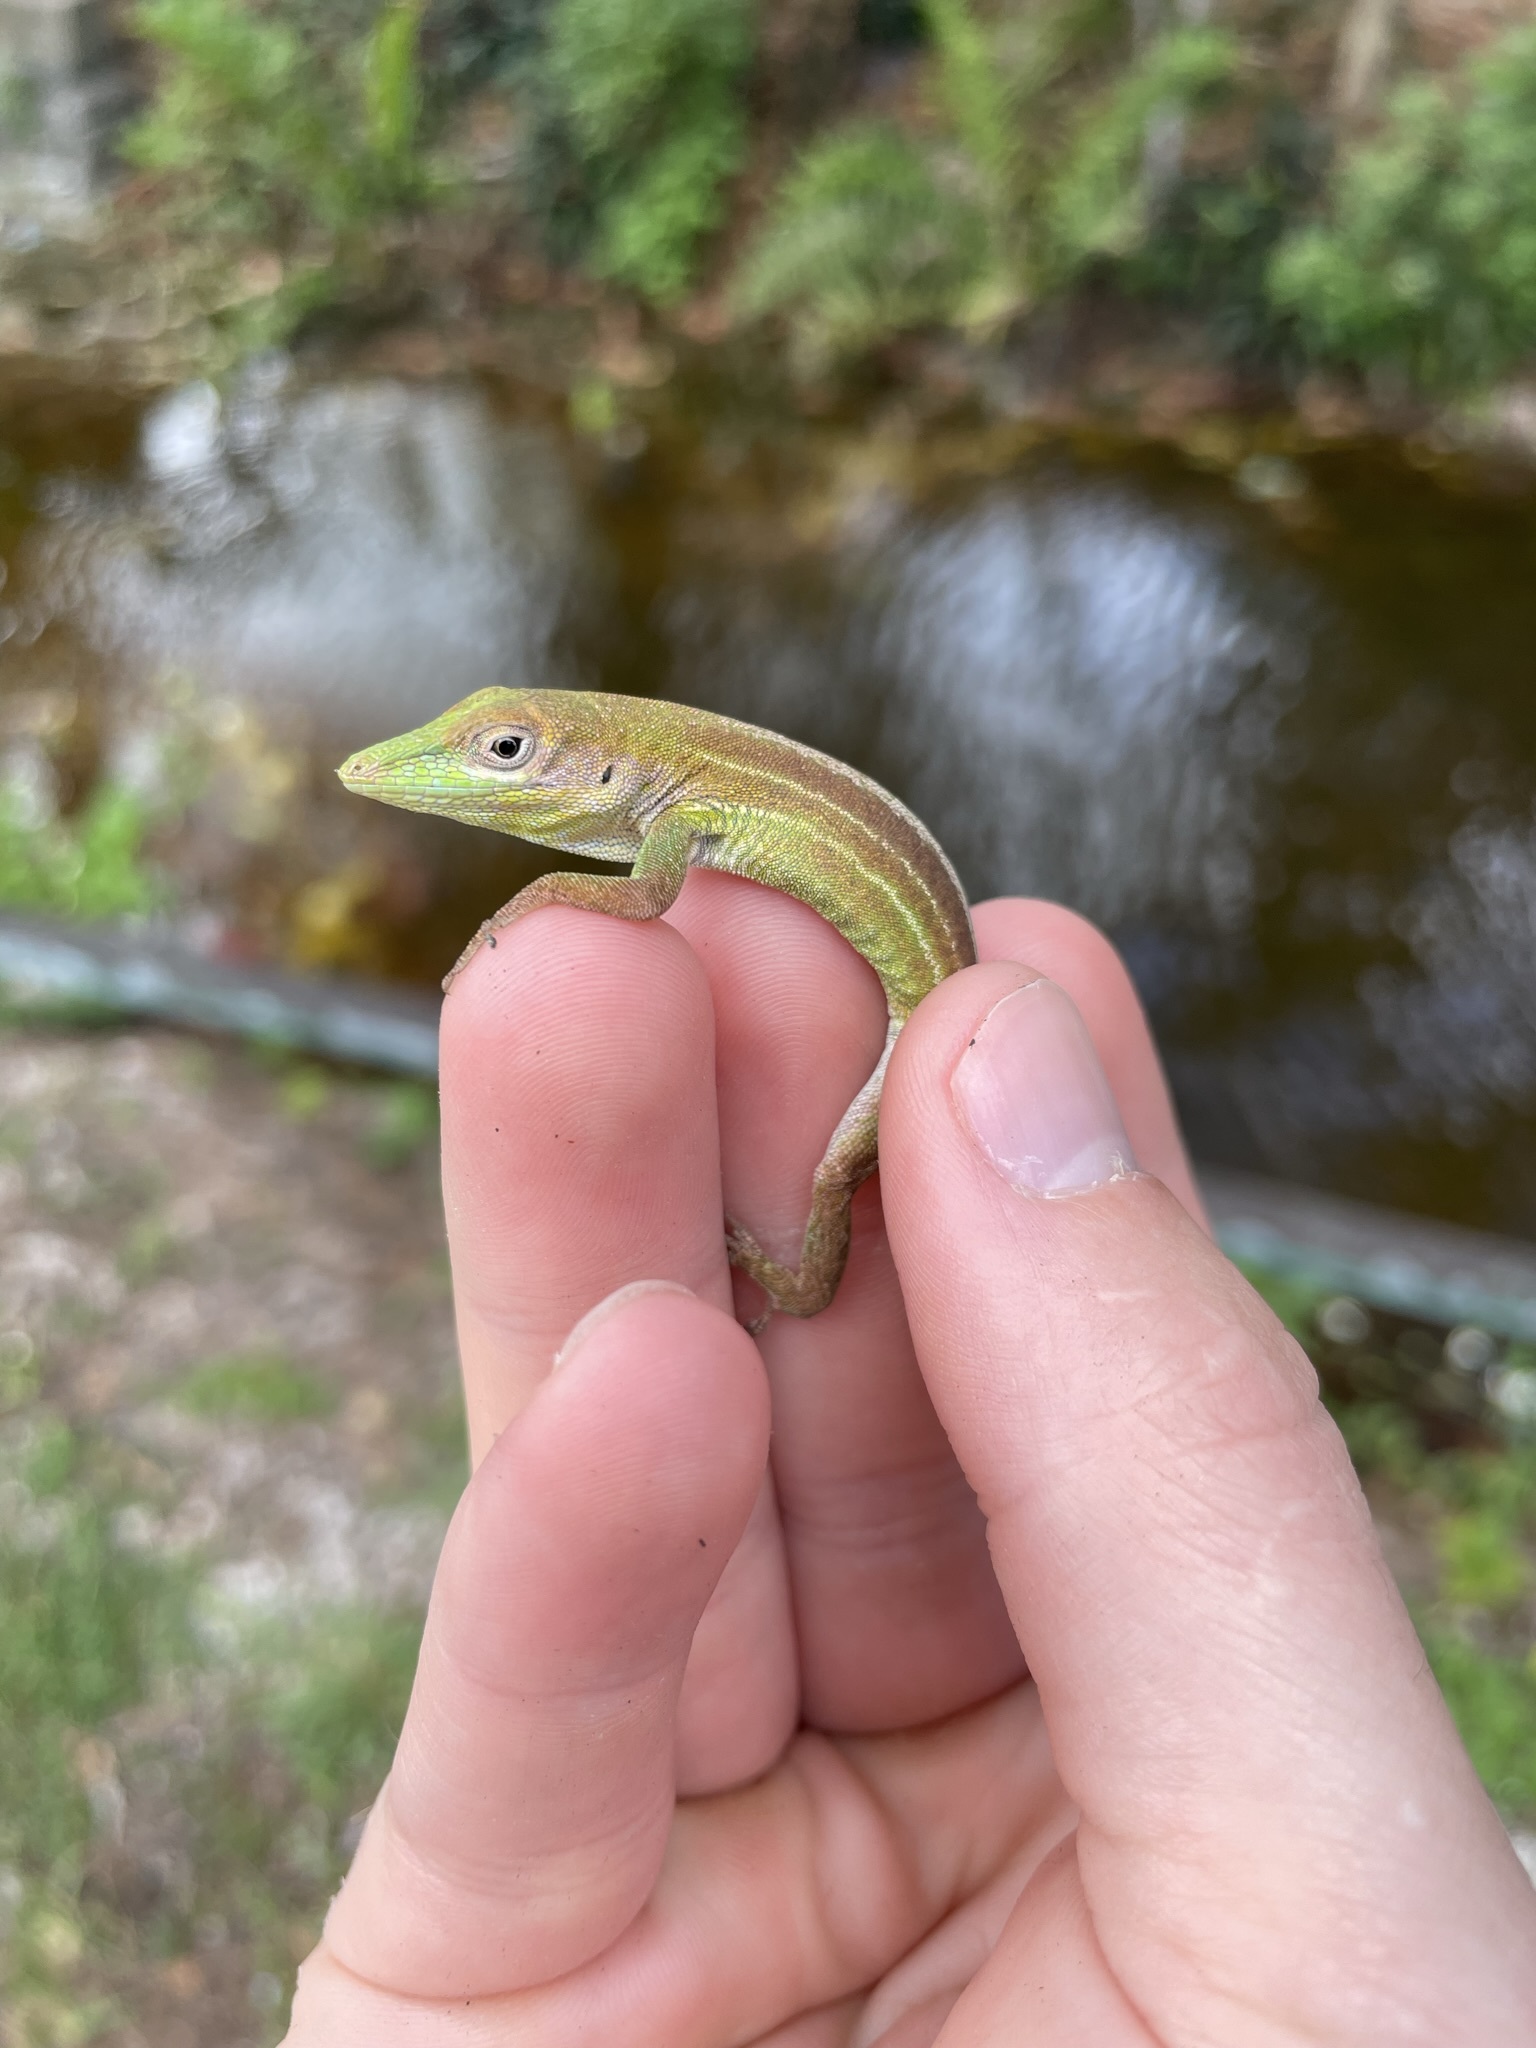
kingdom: Animalia
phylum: Chordata
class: Squamata
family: Dactyloidae
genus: Anolis
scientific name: Anolis chlorocyanus
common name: Hispaniolan green anole
